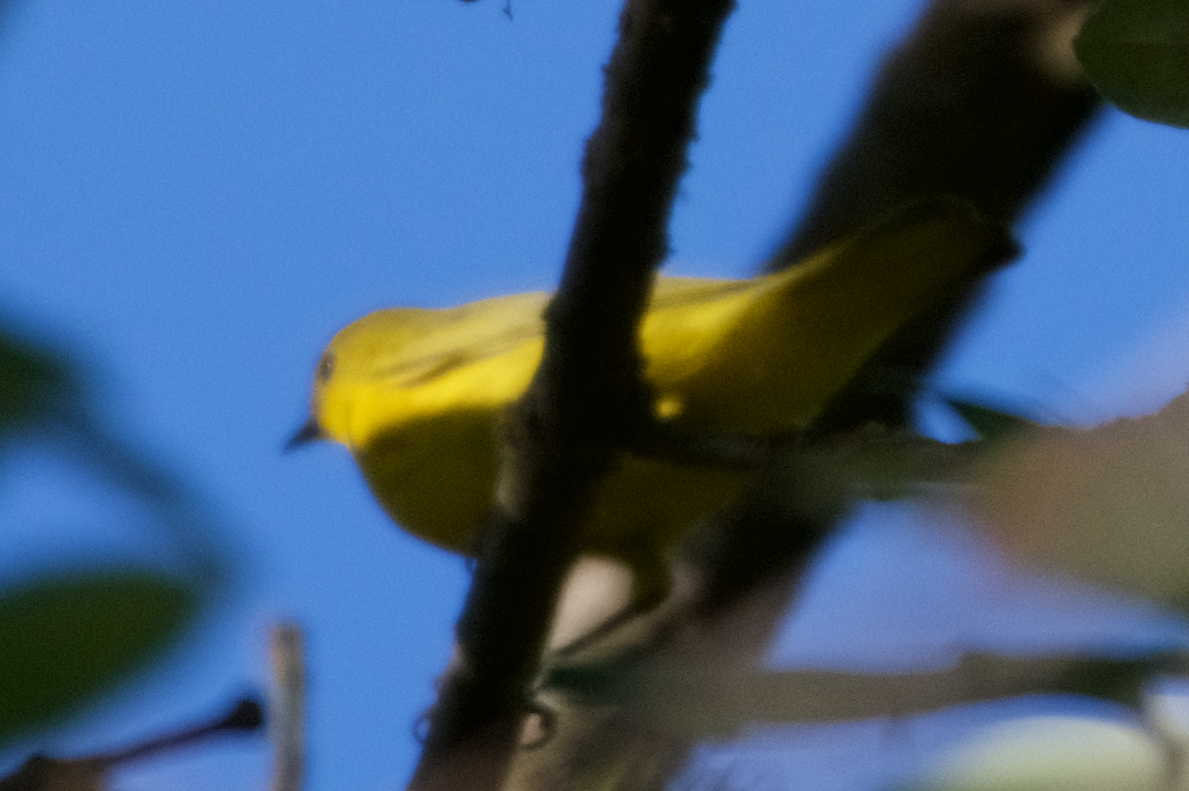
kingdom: Animalia
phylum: Chordata
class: Aves
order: Passeriformes
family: Parulidae
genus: Setophaga
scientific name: Setophaga petechia
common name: Yellow warbler
